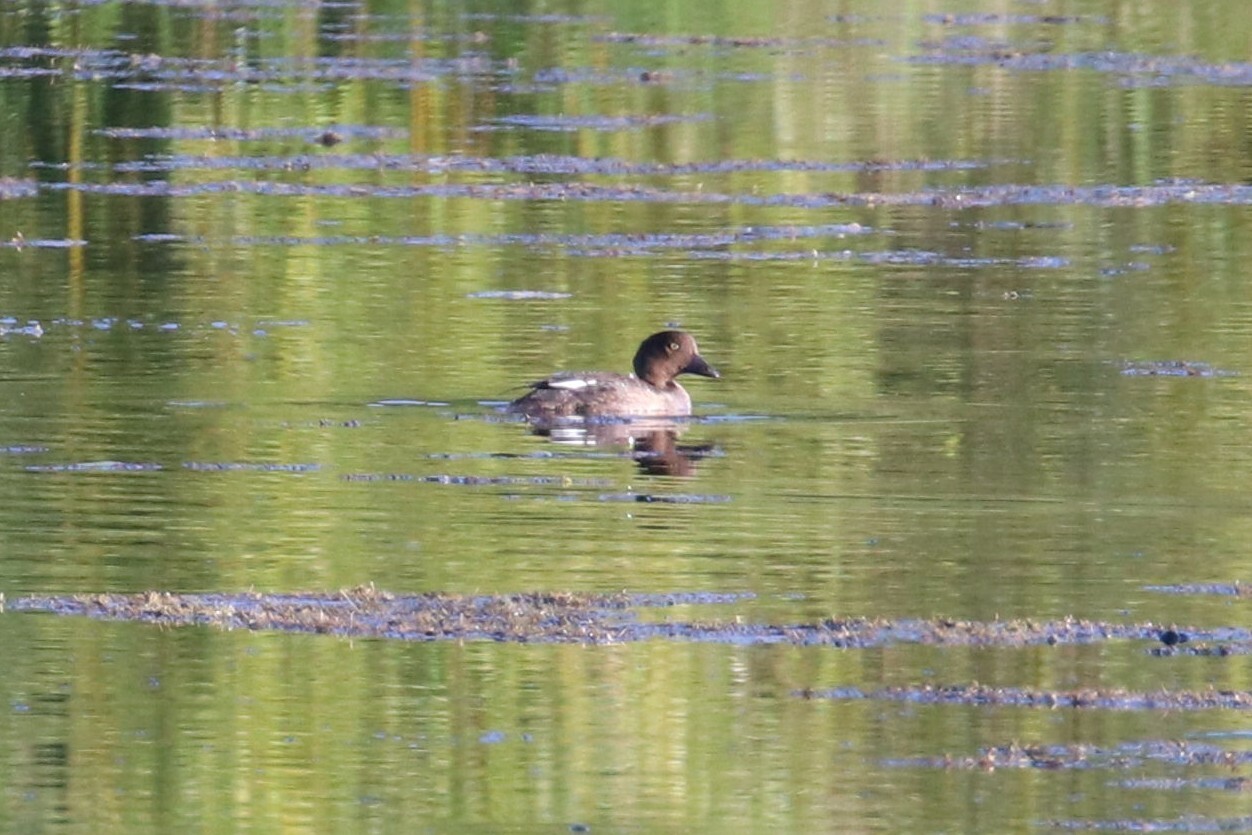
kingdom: Animalia
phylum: Chordata
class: Aves
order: Anseriformes
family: Anatidae
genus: Bucephala
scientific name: Bucephala clangula
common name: Common goldeneye
